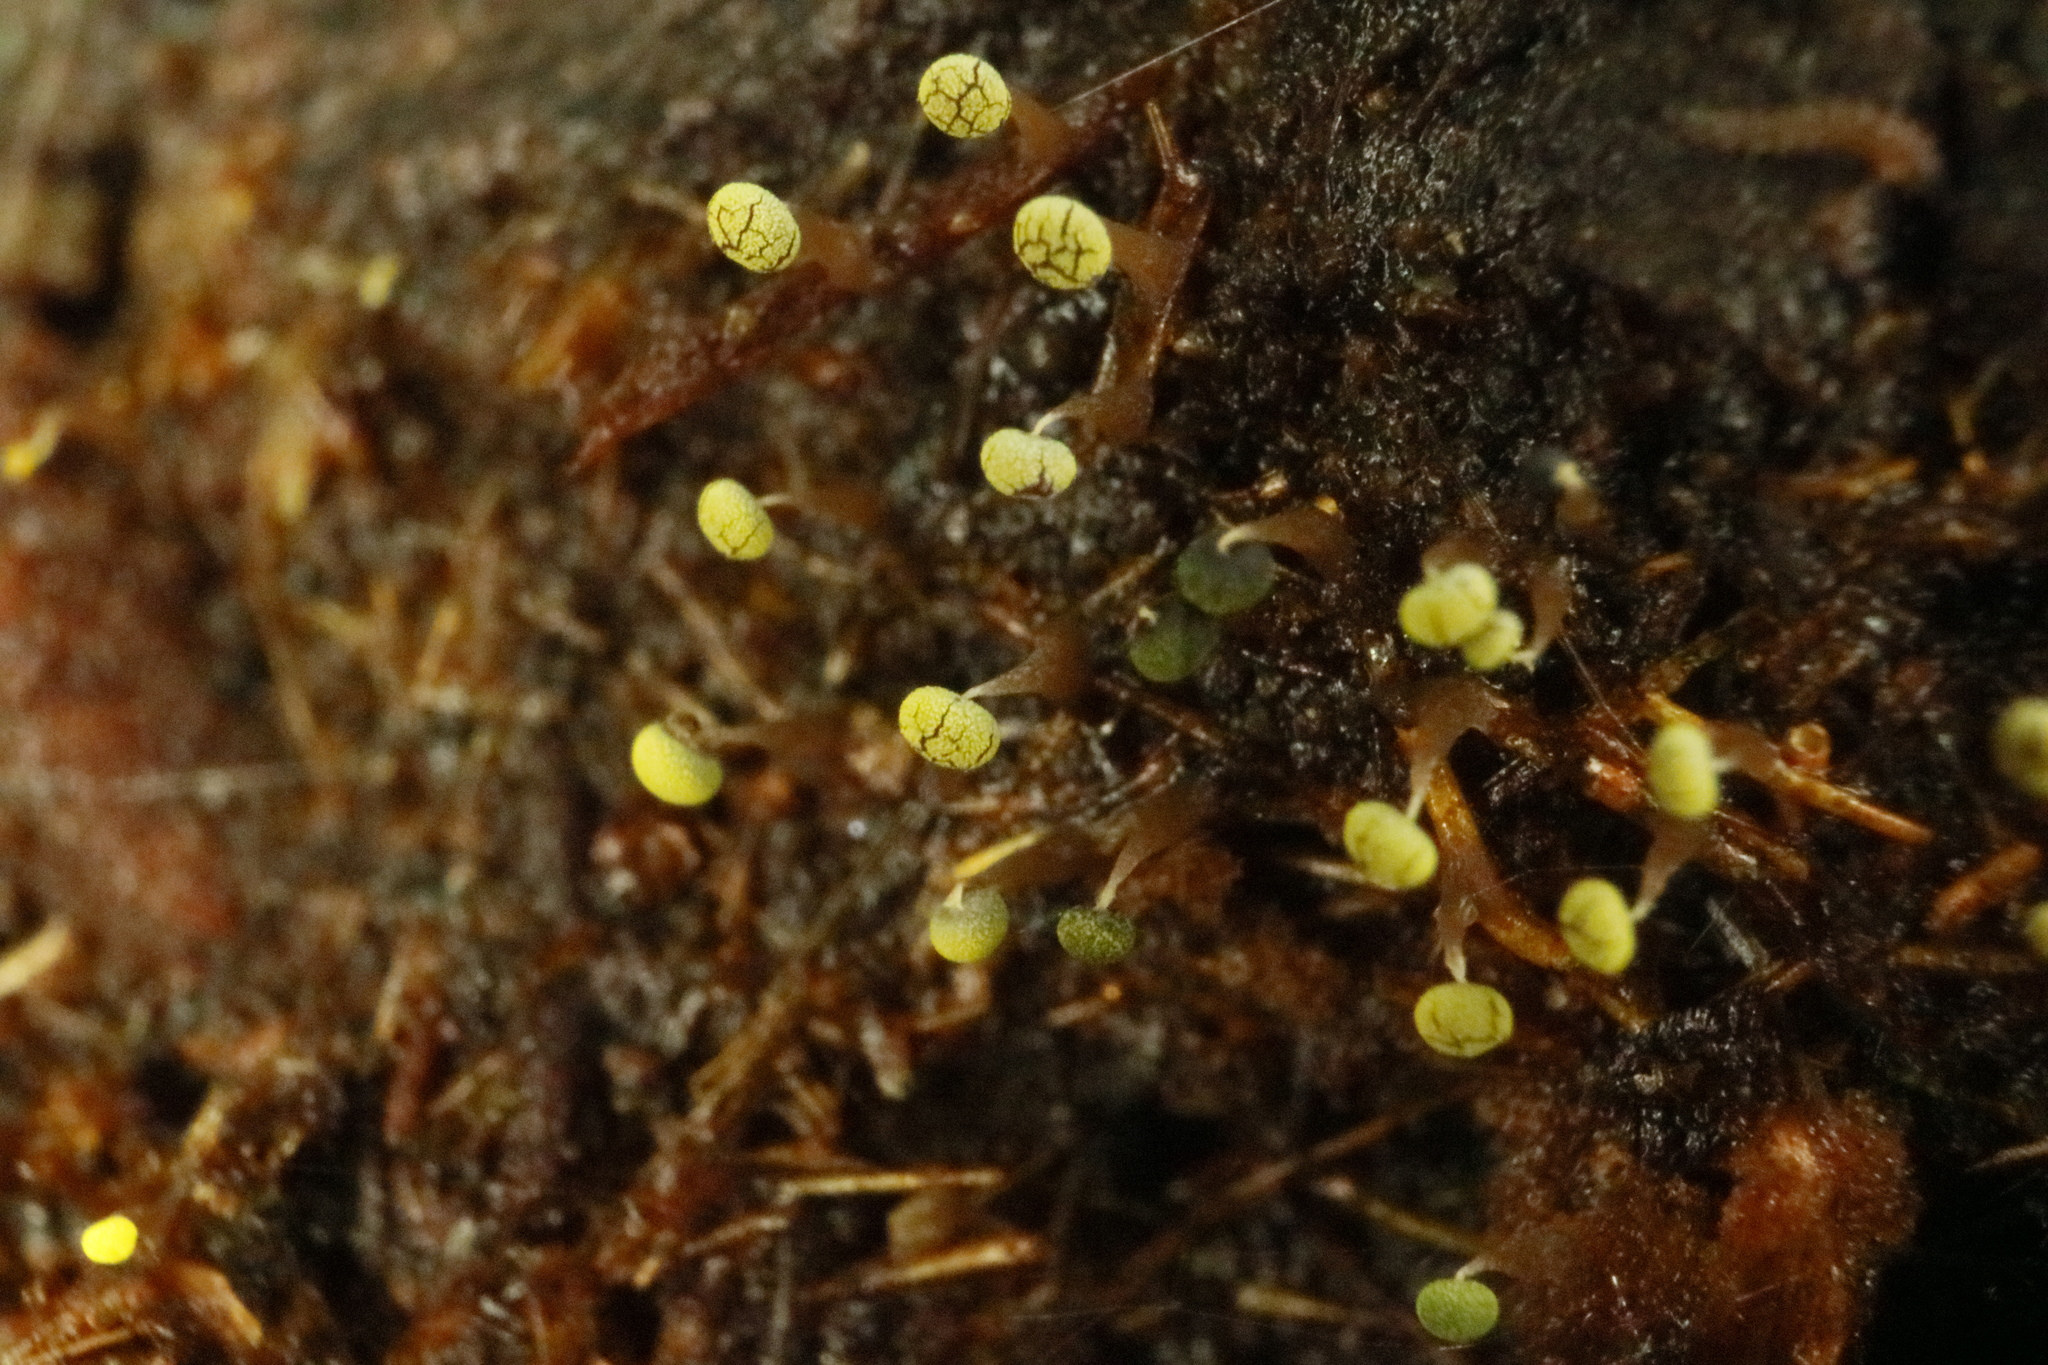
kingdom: Protozoa
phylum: Mycetozoa
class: Myxomycetes
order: Physarales
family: Physaraceae
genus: Physarum
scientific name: Physarum viride
